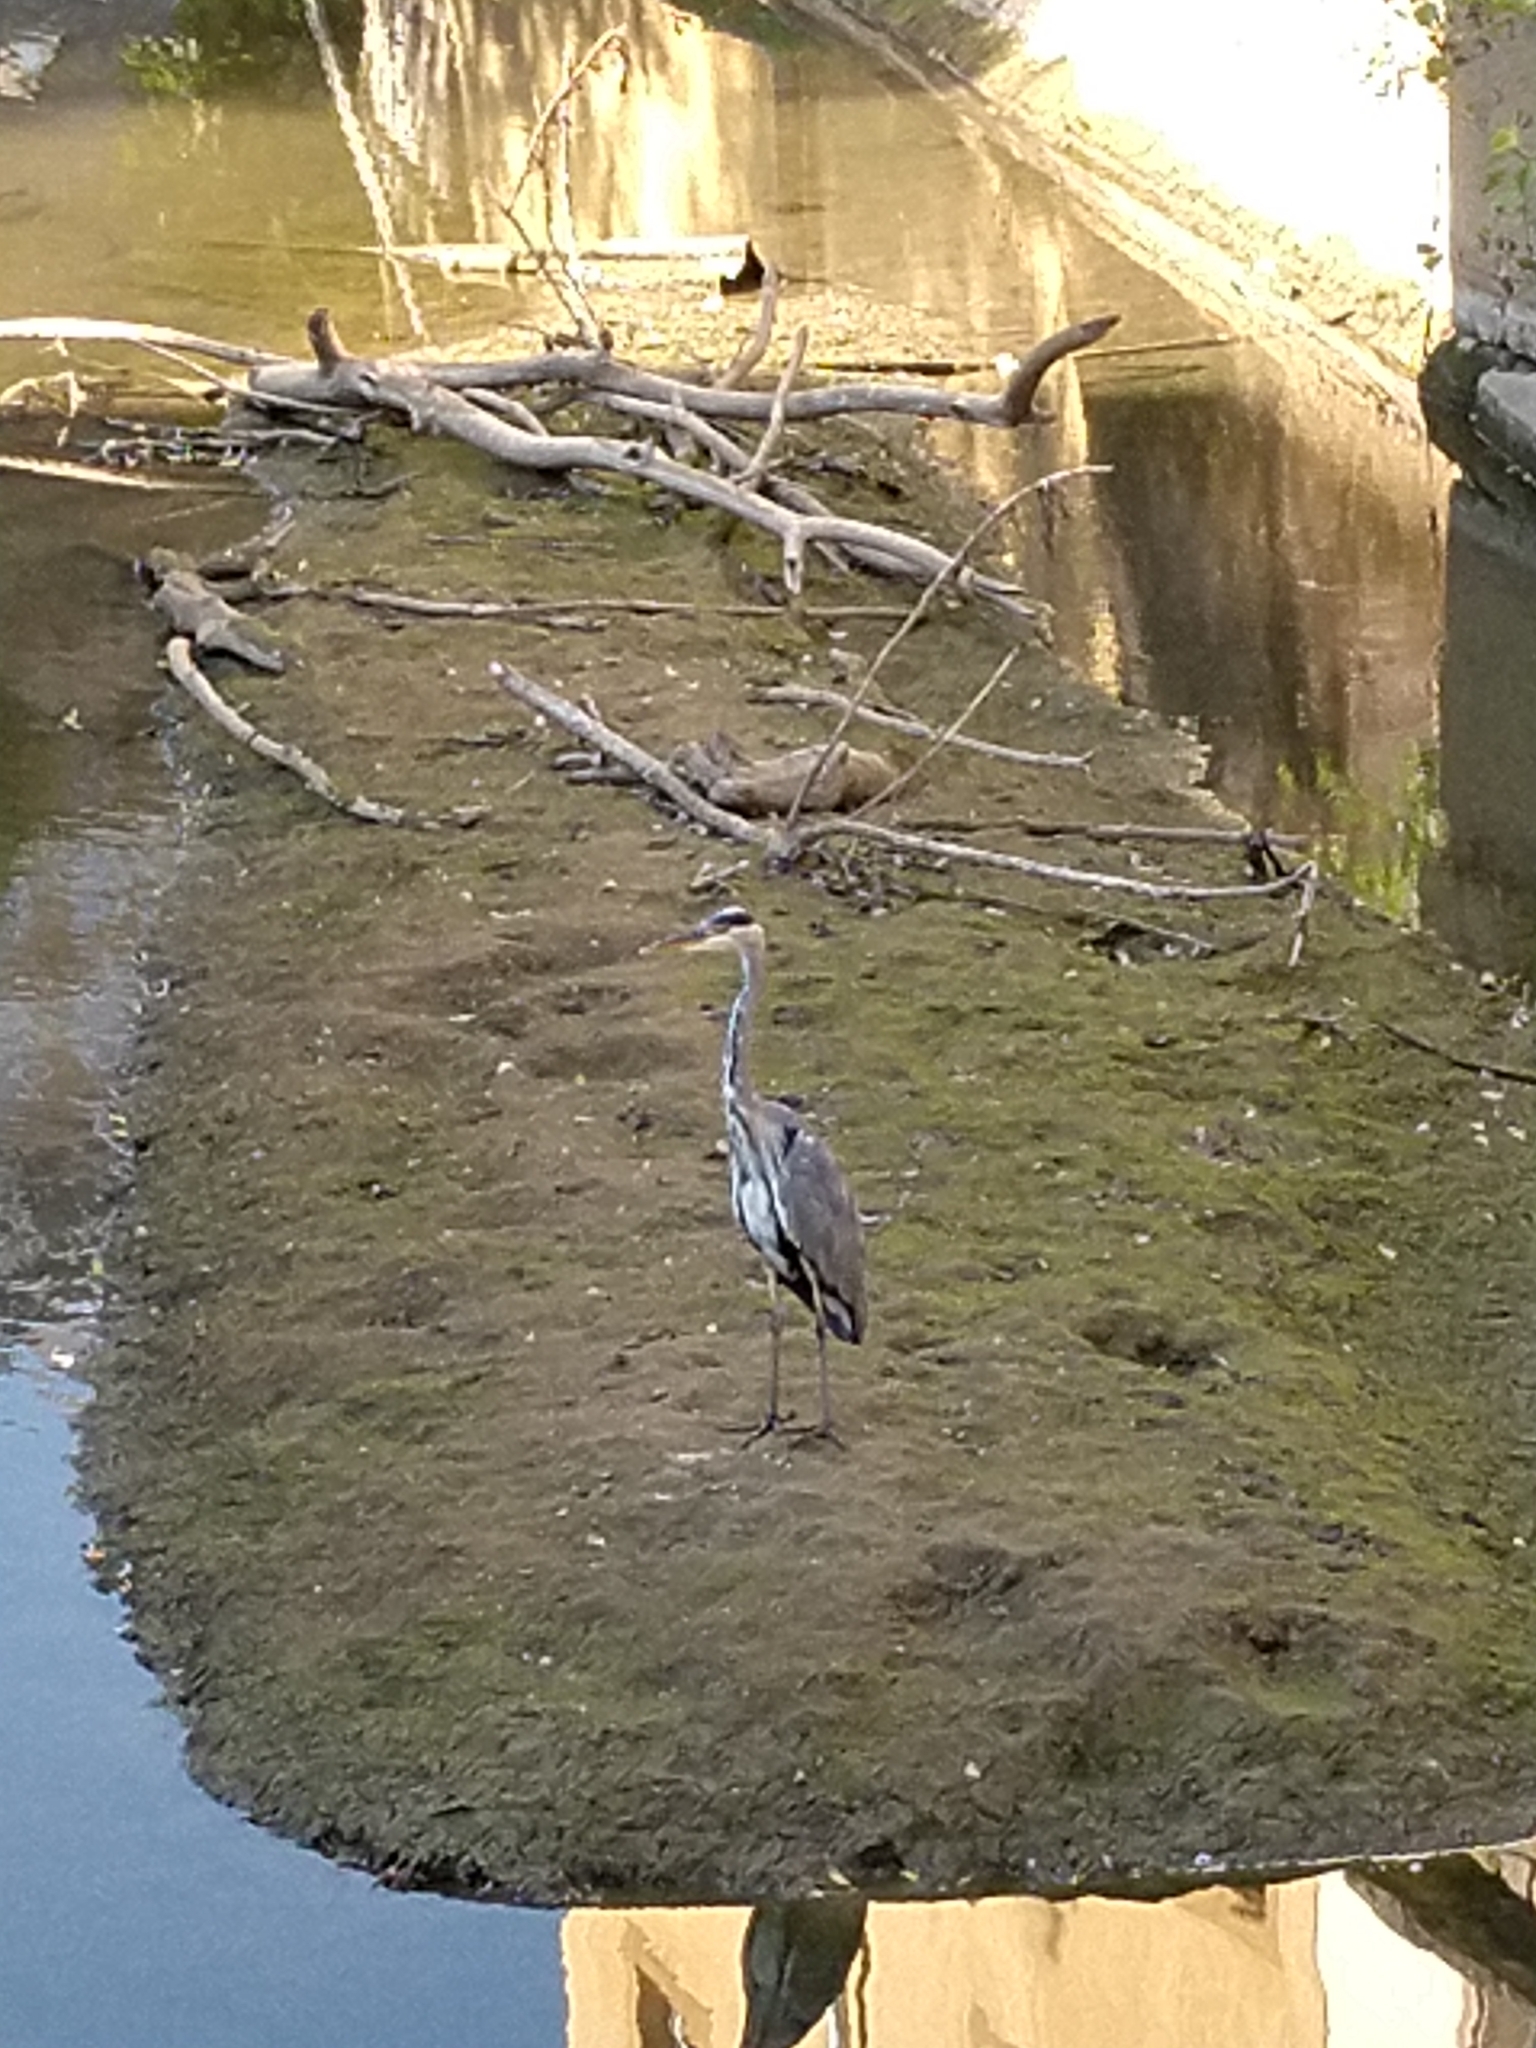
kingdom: Animalia
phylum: Chordata
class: Aves
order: Pelecaniformes
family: Ardeidae
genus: Ardea
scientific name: Ardea cinerea
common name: Grey heron
